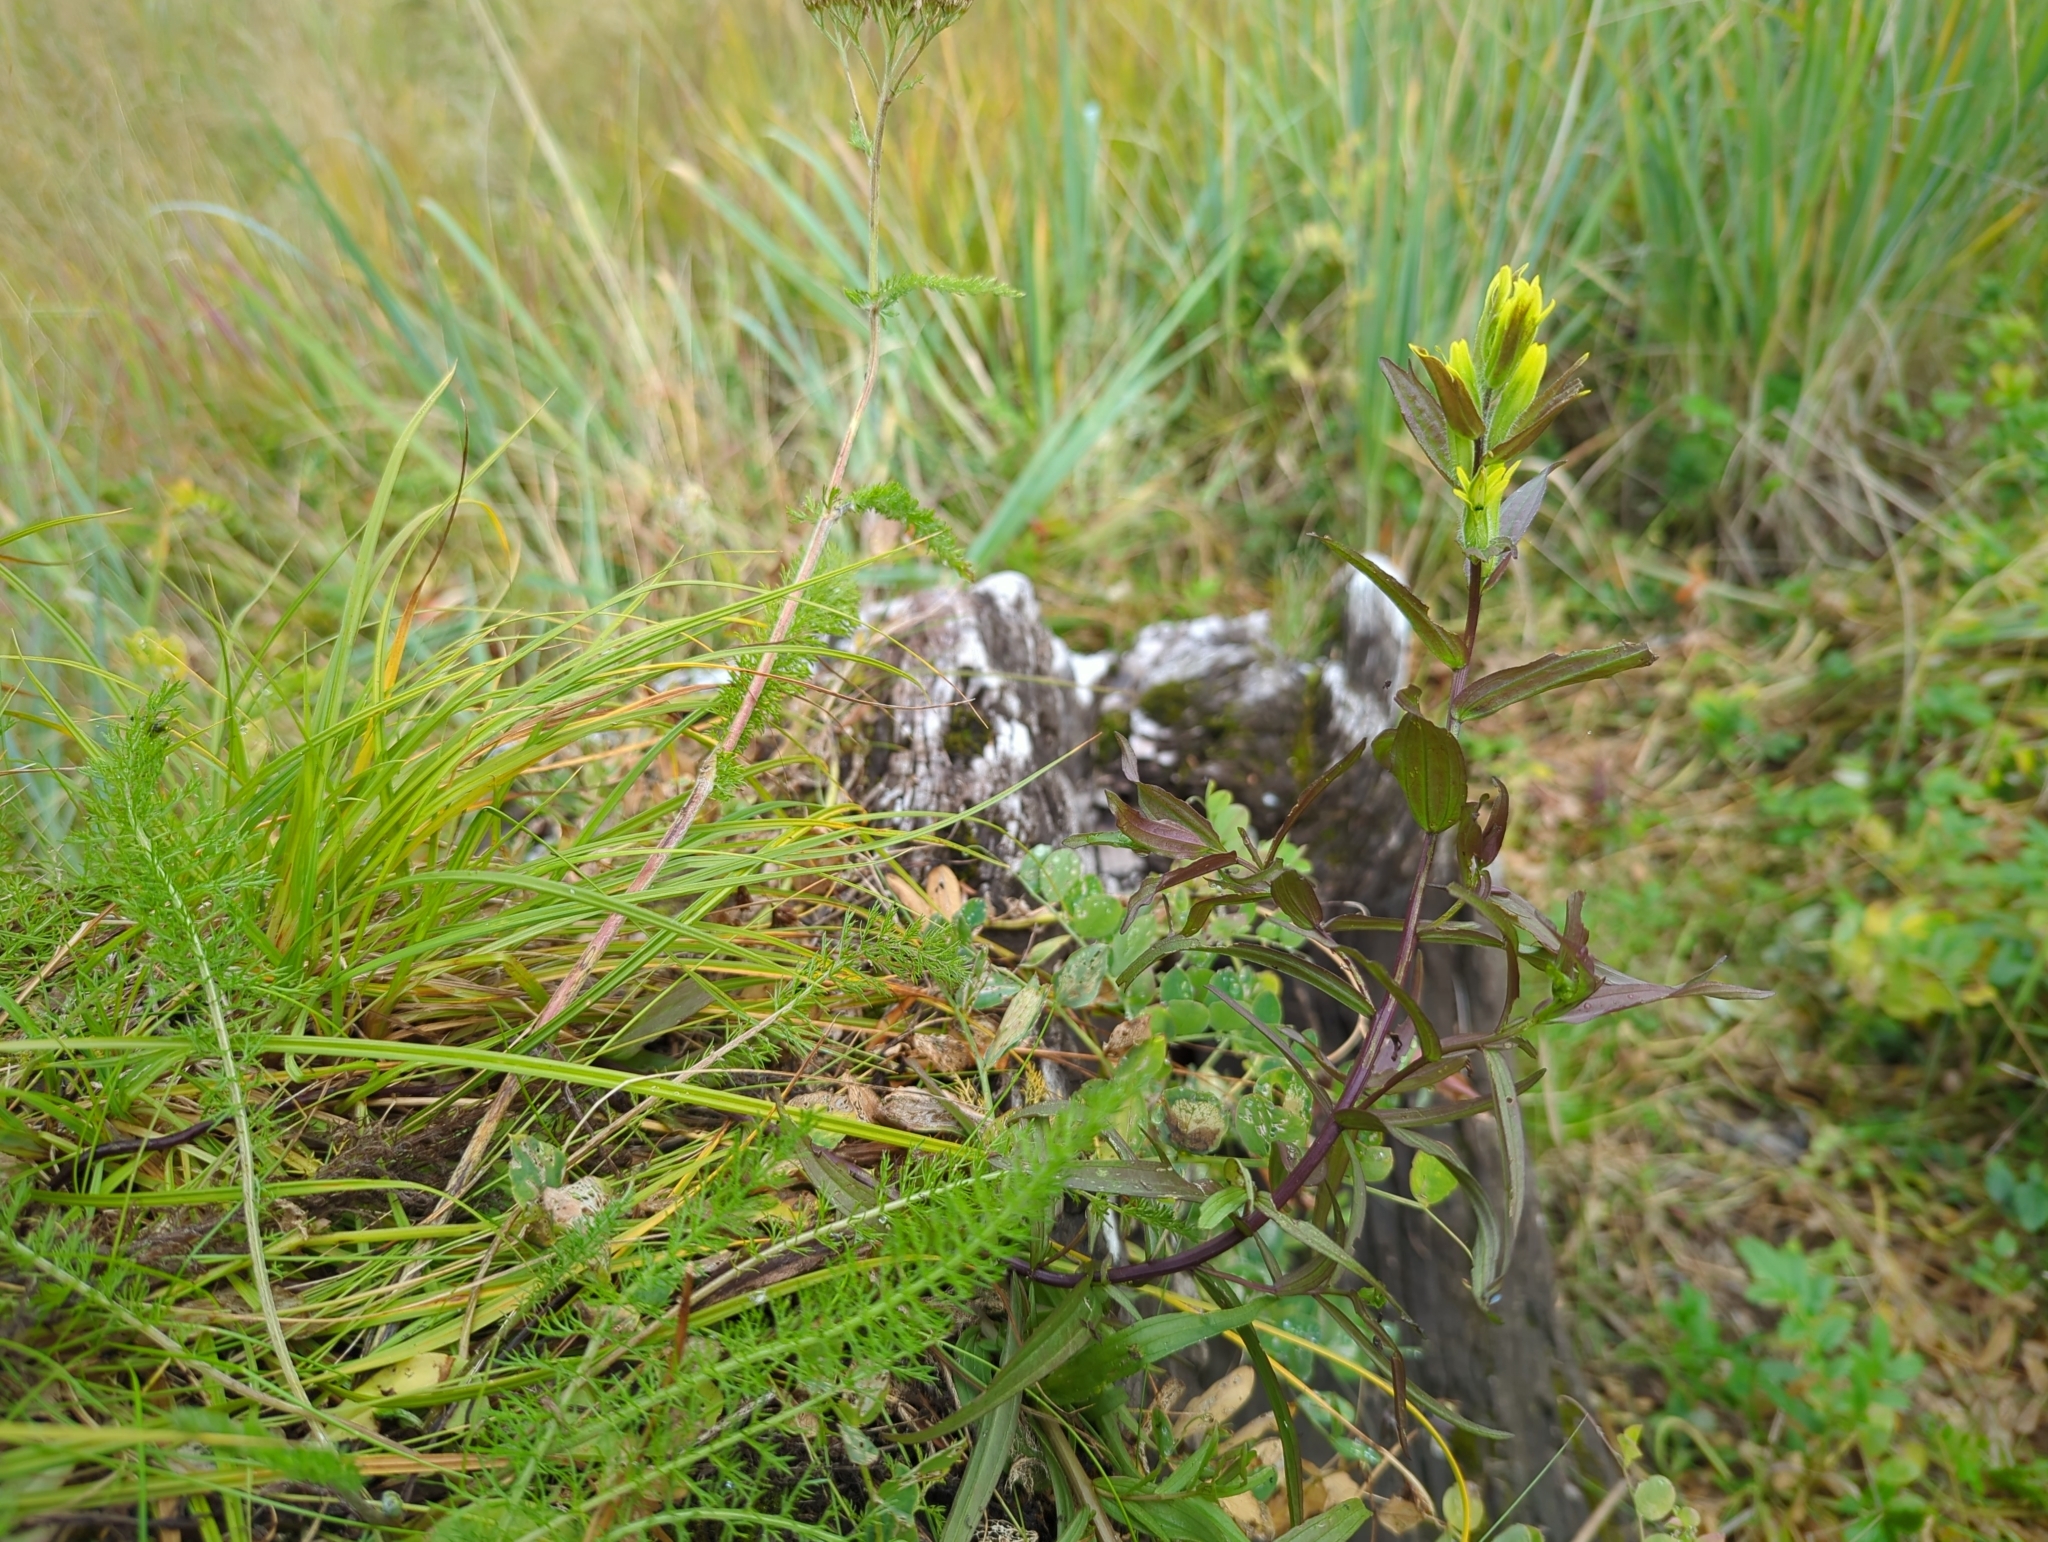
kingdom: Plantae
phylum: Tracheophyta
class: Magnoliopsida
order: Lamiales
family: Orobanchaceae
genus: Castilleja
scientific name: Castilleja unalaschcensis
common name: Unalaska paintbrush
